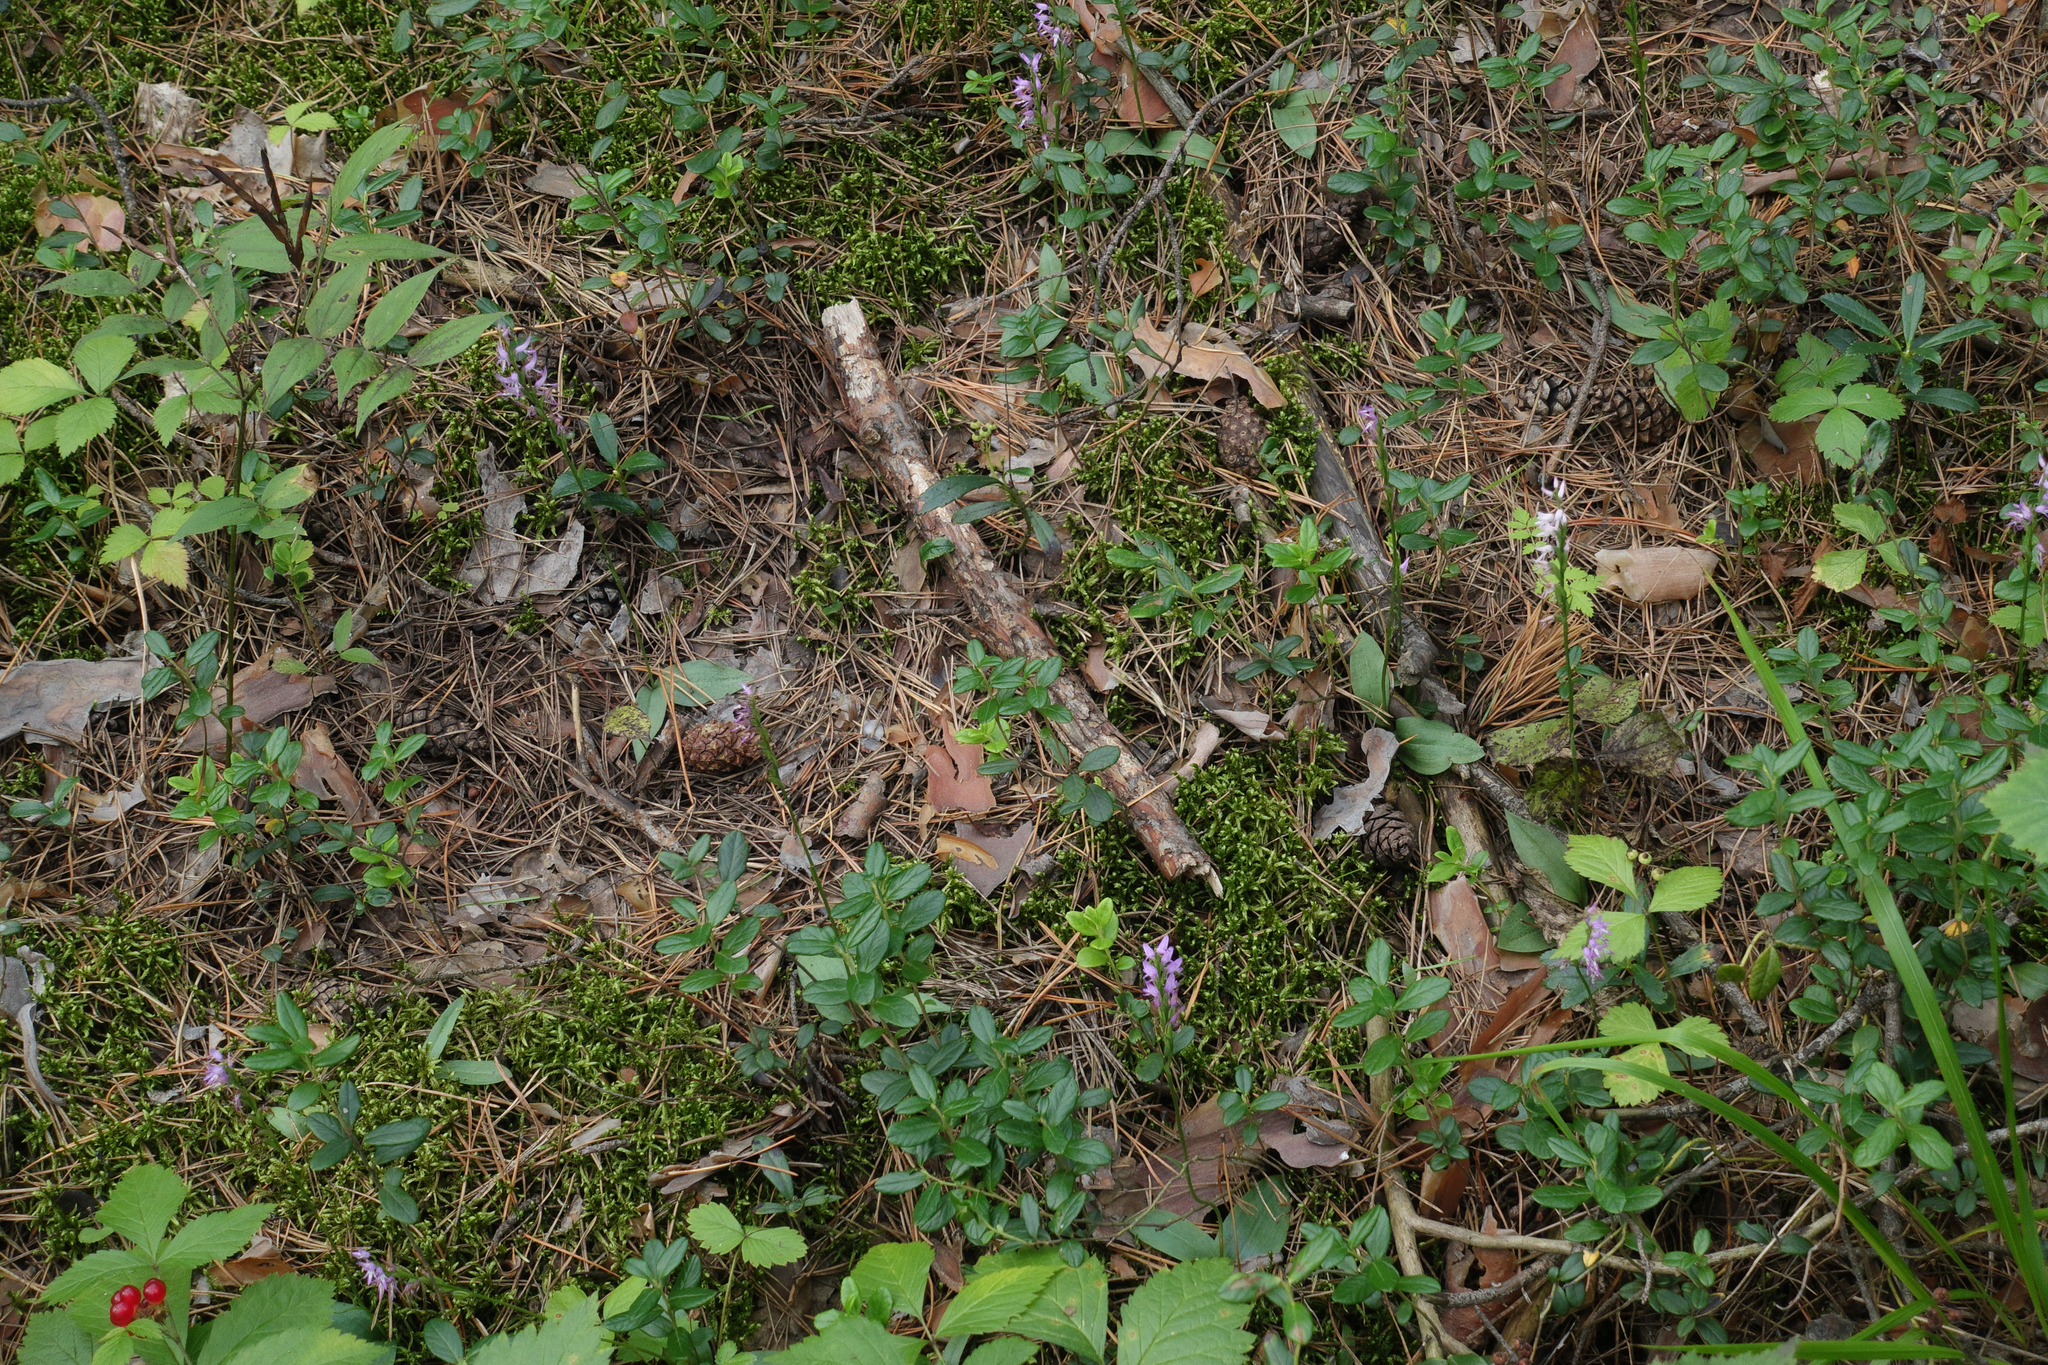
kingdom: Plantae
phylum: Tracheophyta
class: Liliopsida
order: Asparagales
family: Orchidaceae
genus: Hemipilia
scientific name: Hemipilia cucullata
